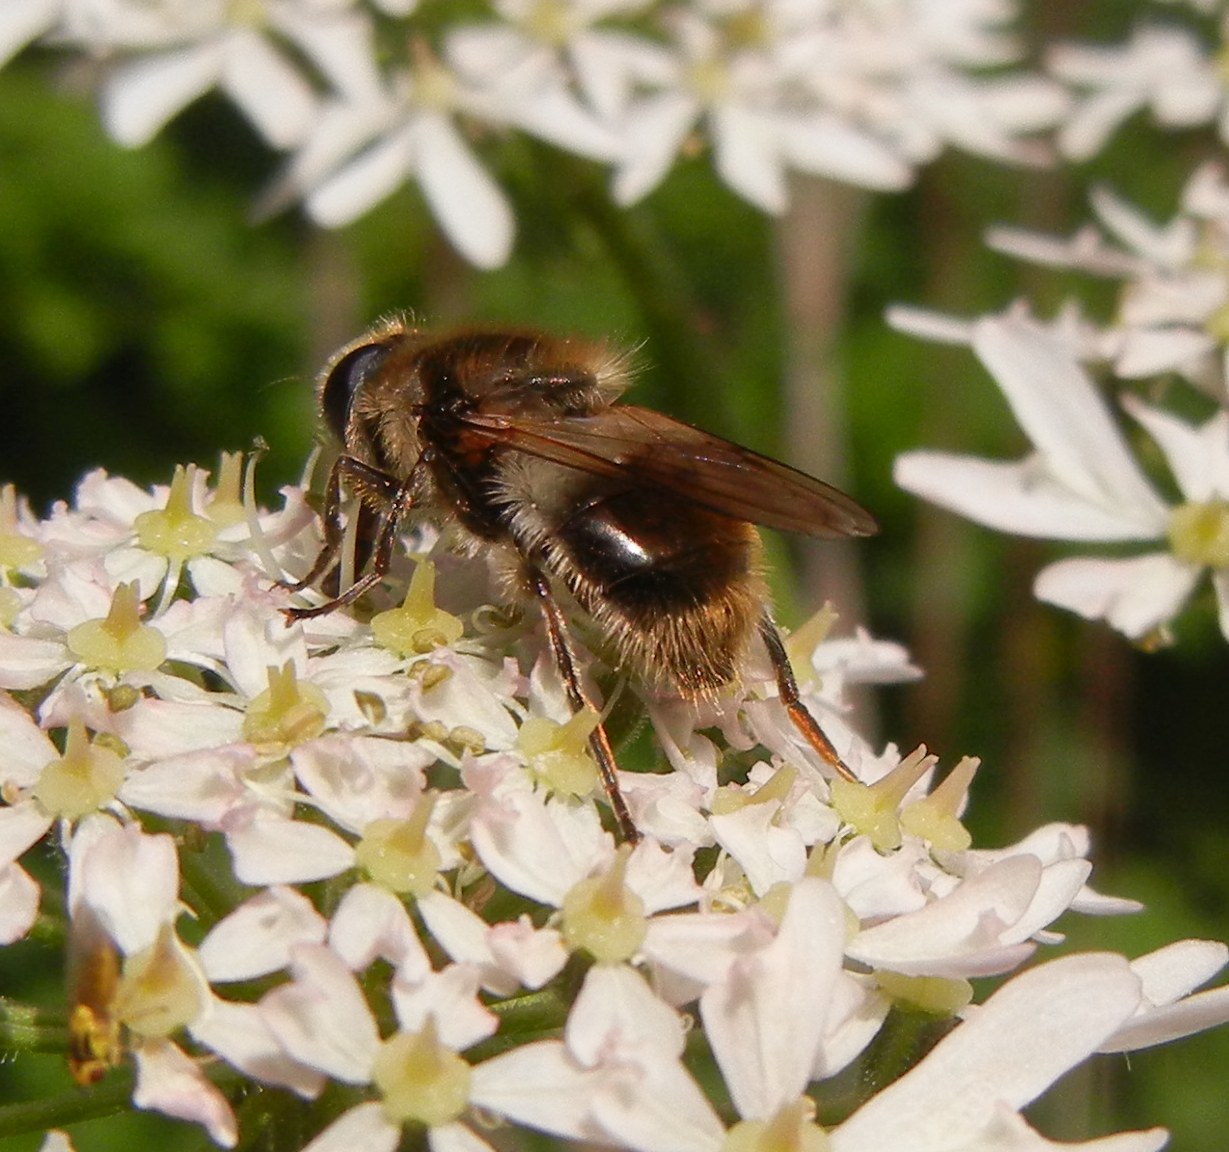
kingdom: Animalia
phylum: Arthropoda
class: Insecta
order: Diptera
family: Syrphidae
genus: Cheilosia
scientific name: Cheilosia illustrata
